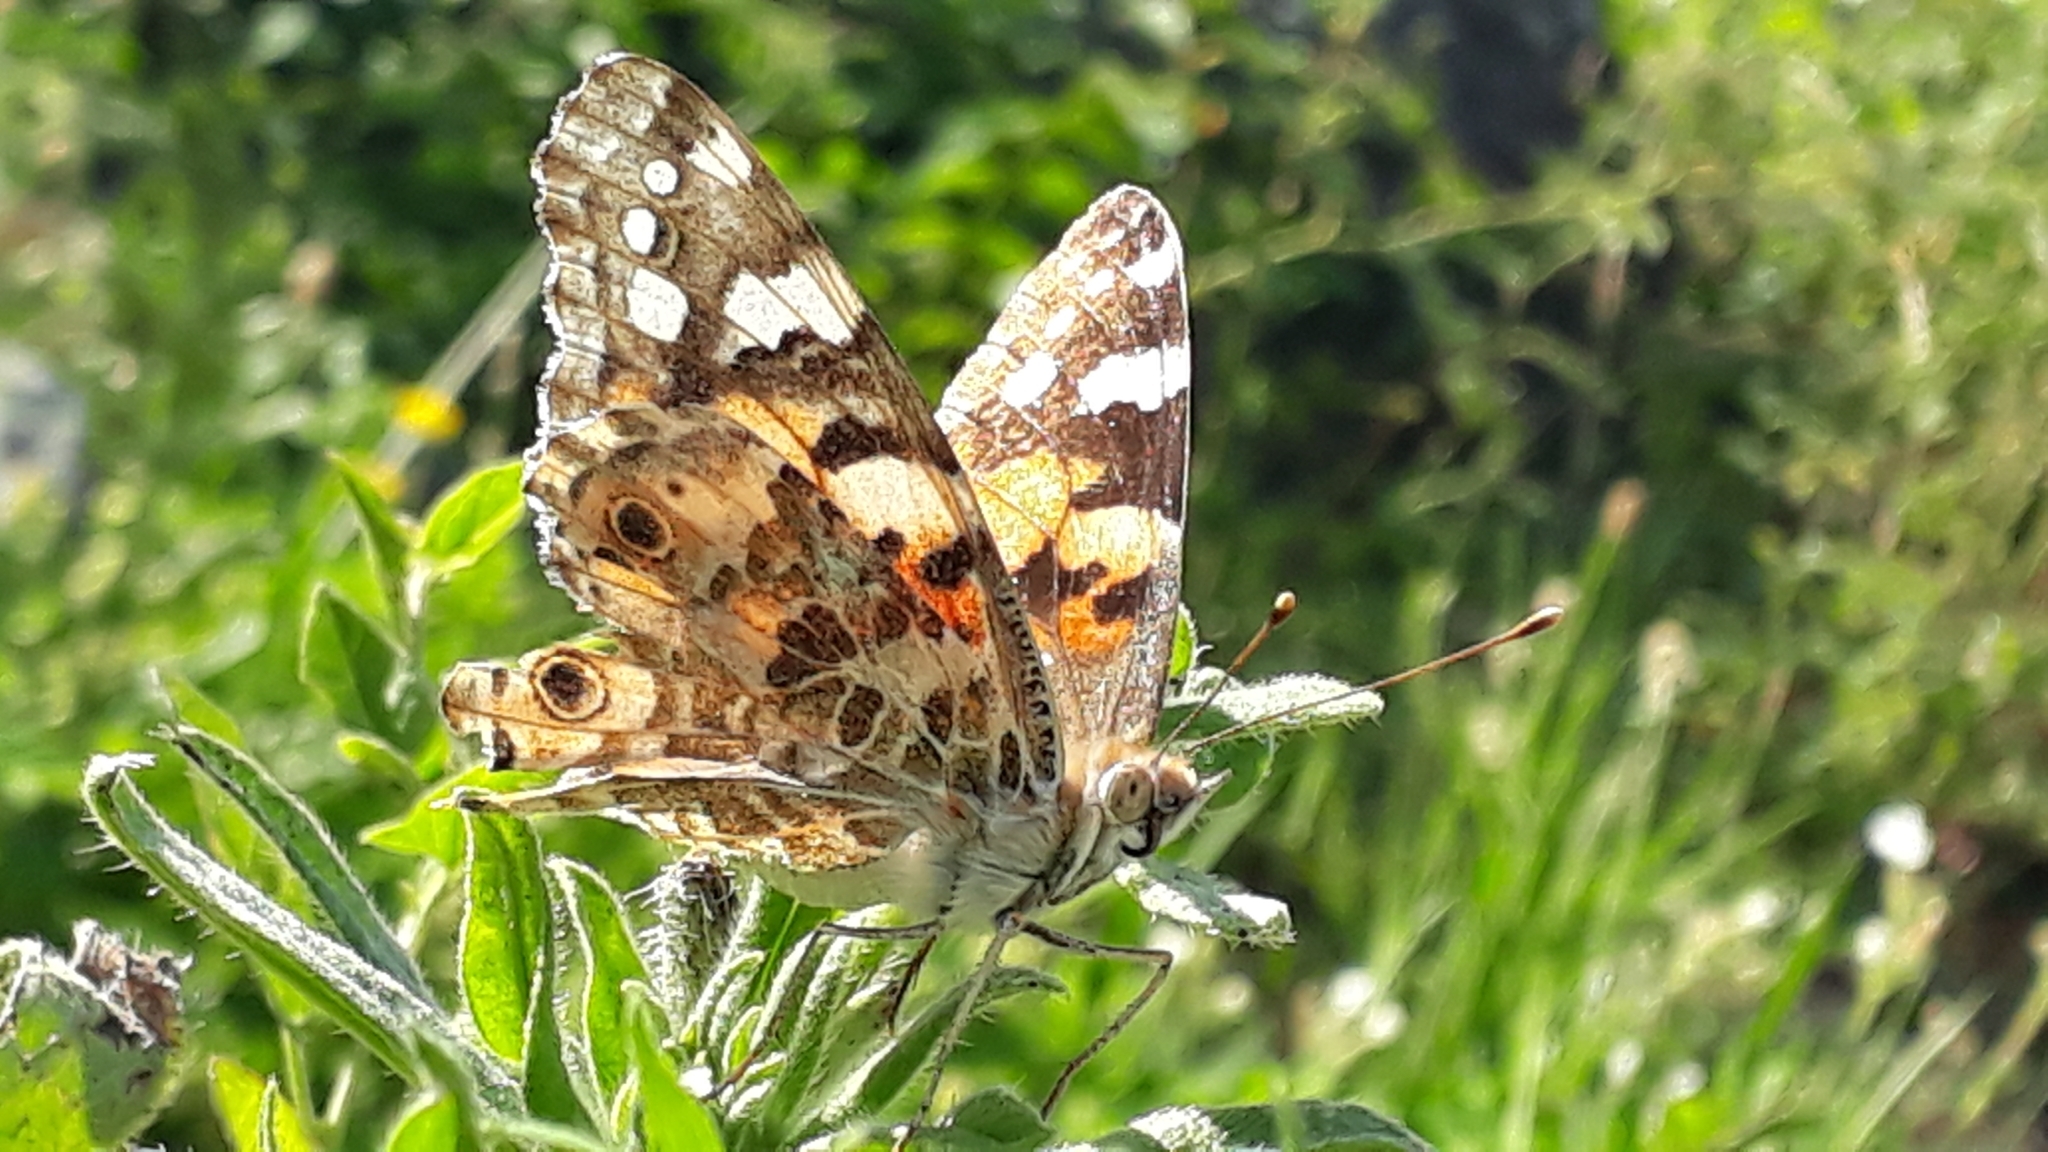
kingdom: Animalia
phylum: Arthropoda
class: Insecta
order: Lepidoptera
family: Nymphalidae
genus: Vanessa
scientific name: Vanessa cardui
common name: Painted lady
